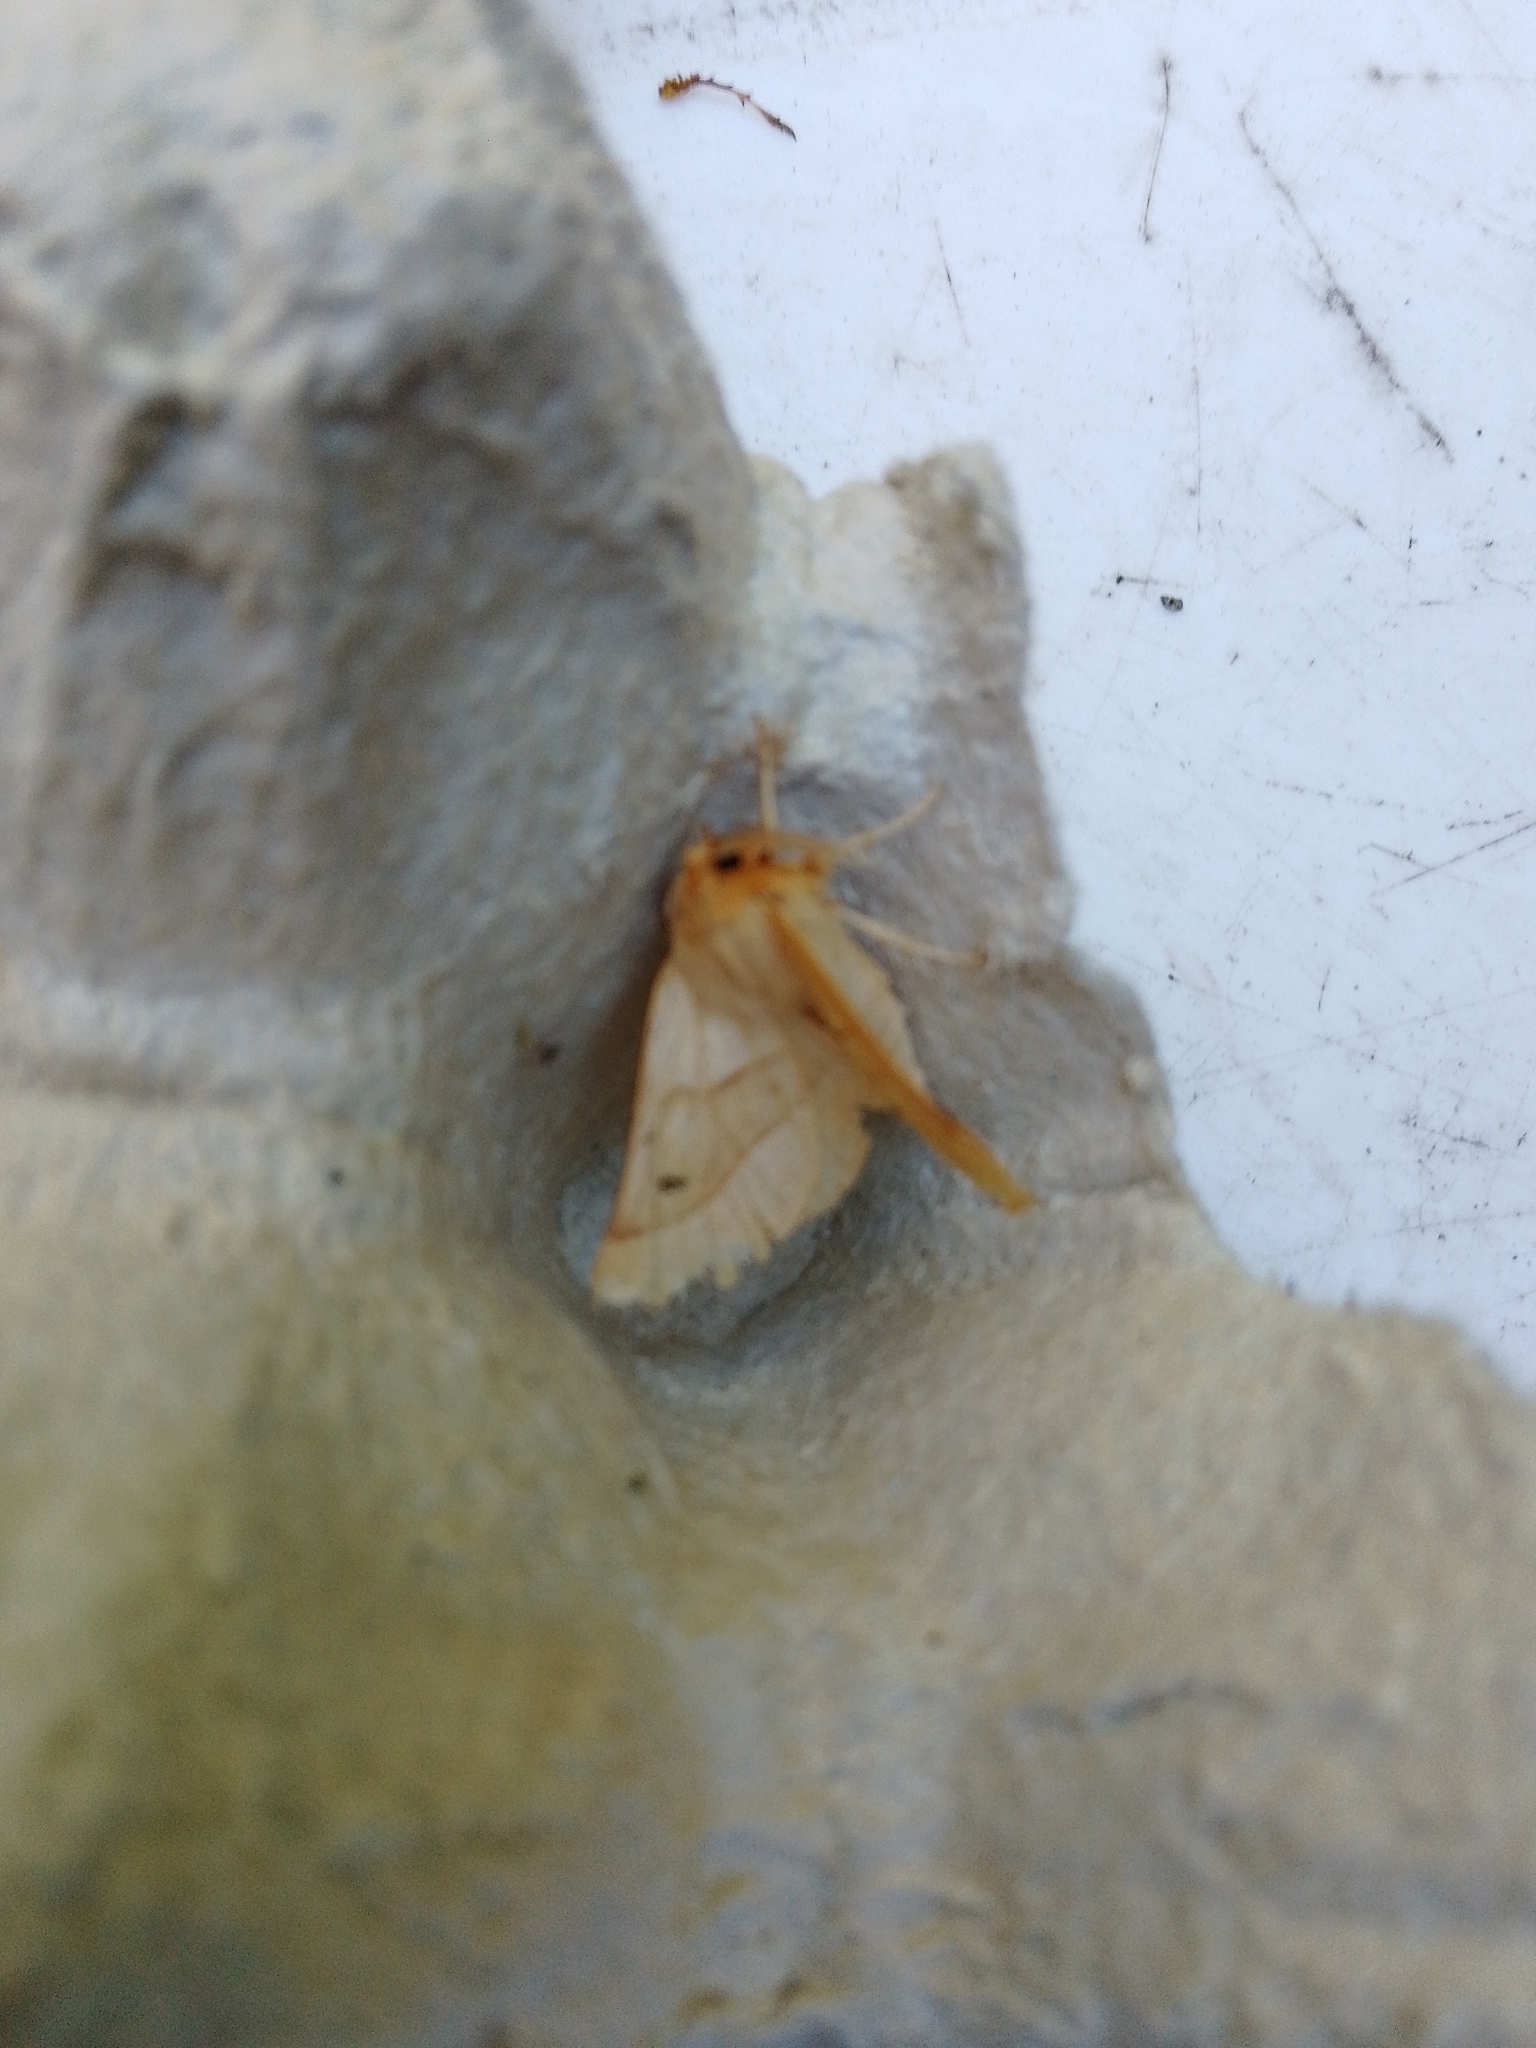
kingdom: Animalia
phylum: Arthropoda
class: Insecta
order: Lepidoptera
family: Geometridae
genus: Crocallis
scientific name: Crocallis elinguaria
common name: Scalloped oak
